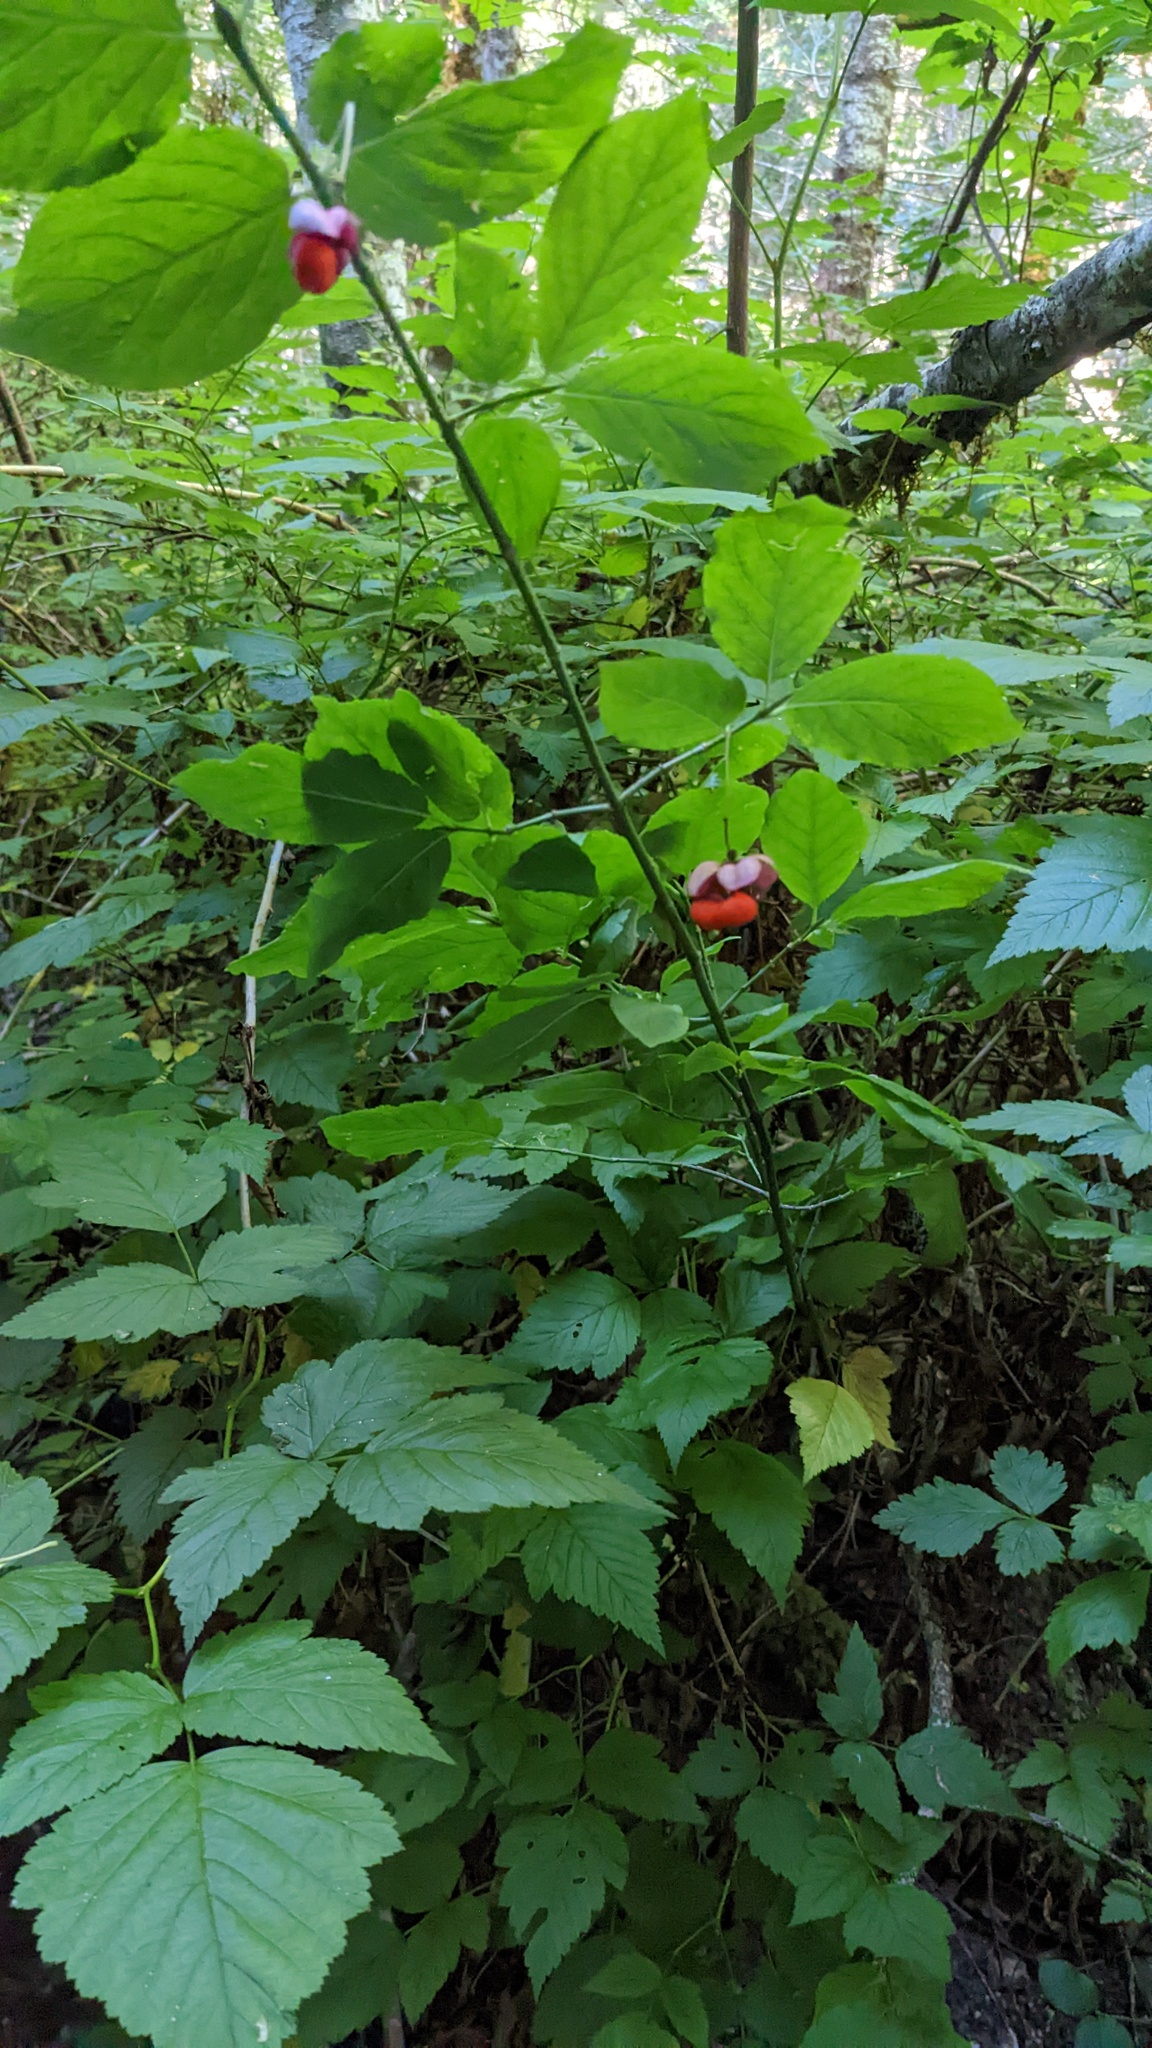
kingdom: Plantae
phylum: Tracheophyta
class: Magnoliopsida
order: Celastrales
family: Celastraceae
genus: Euonymus
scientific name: Euonymus occidentalis
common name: Western burningbush
